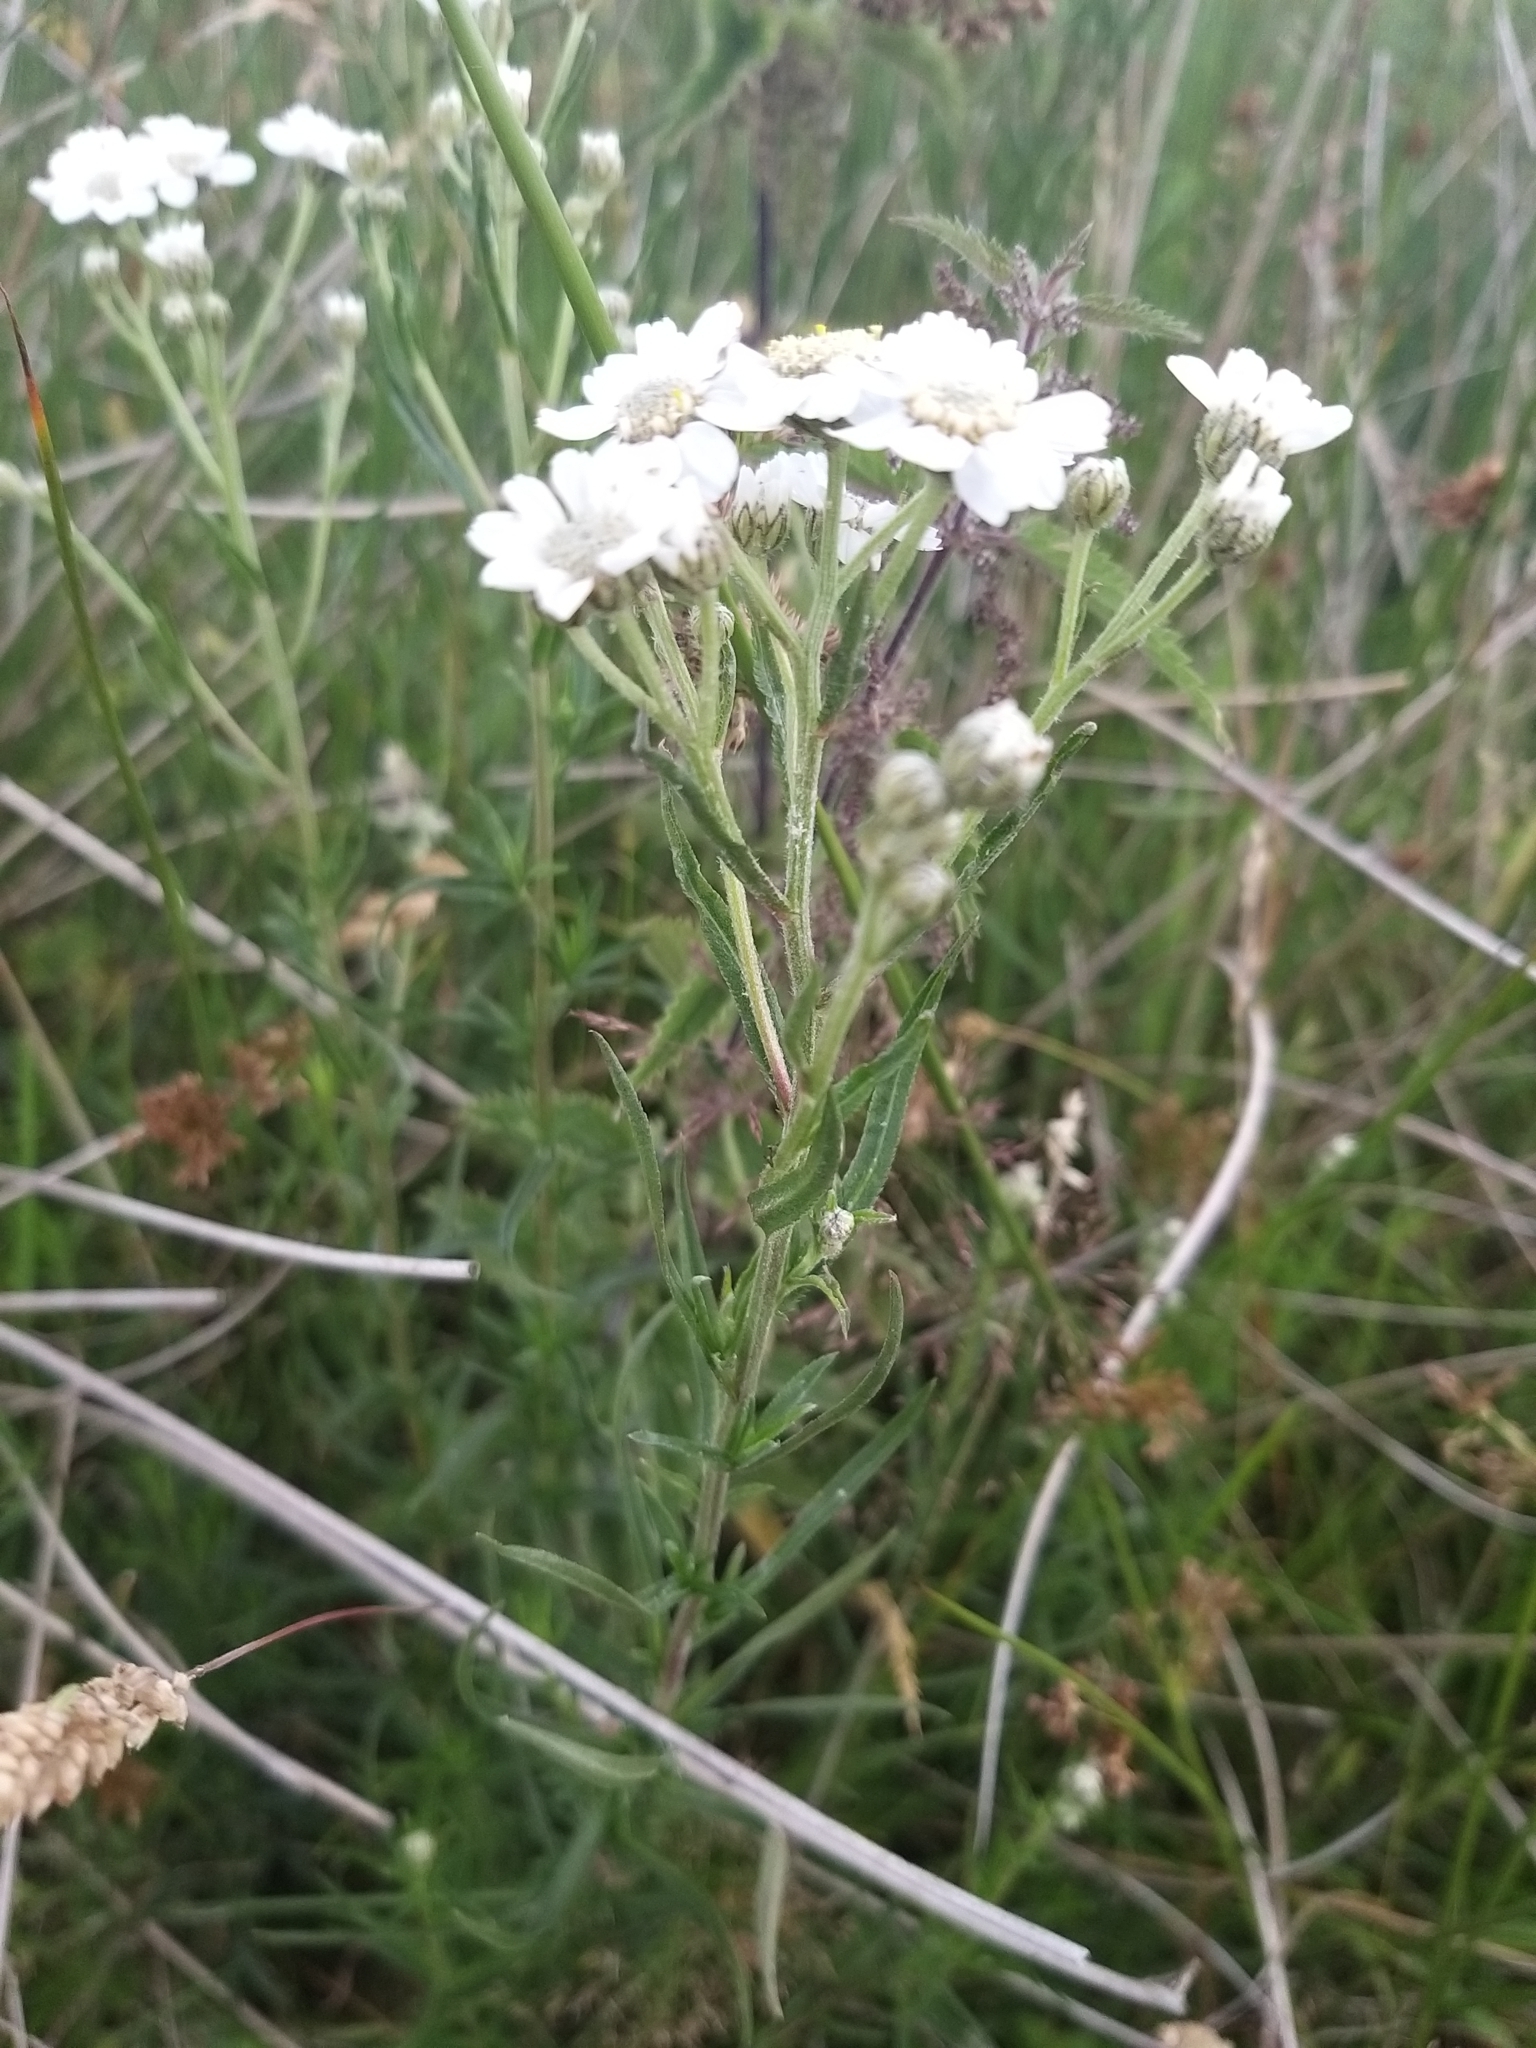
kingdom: Plantae
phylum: Tracheophyta
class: Magnoliopsida
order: Asterales
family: Asteraceae
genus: Achillea
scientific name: Achillea ptarmica
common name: Sneezeweed
